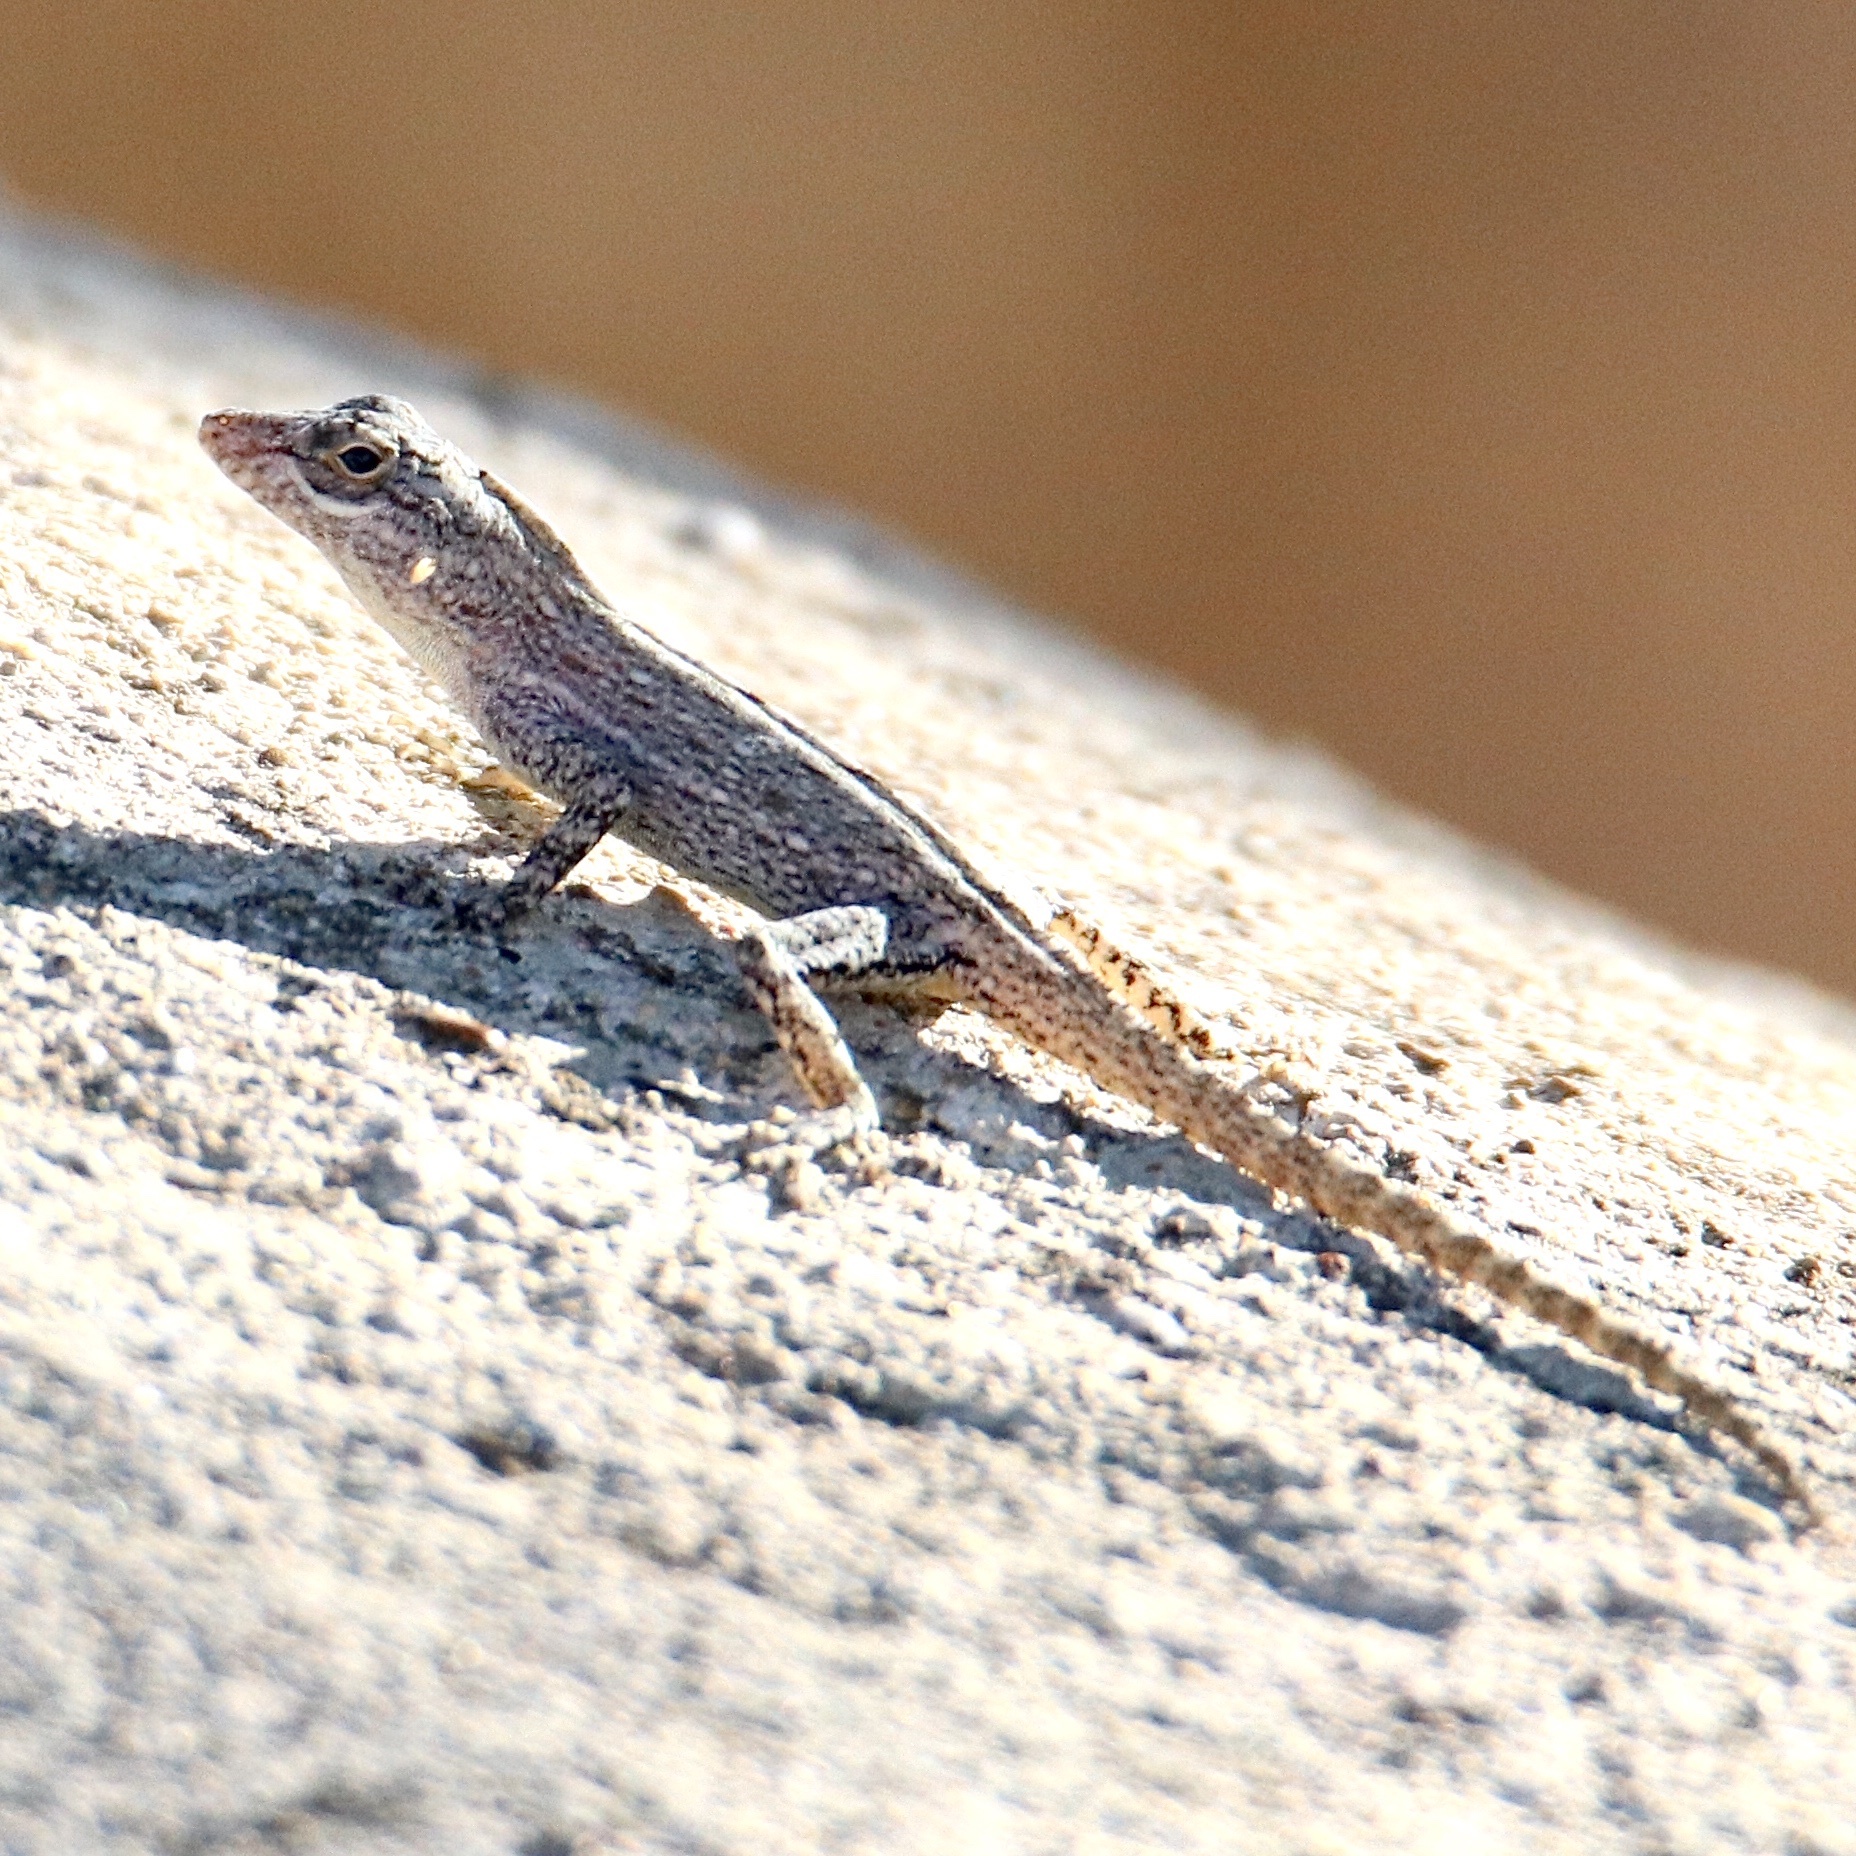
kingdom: Animalia
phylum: Chordata
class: Squamata
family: Dactyloidae
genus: Anolis
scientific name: Anolis distichus
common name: Bark anole
